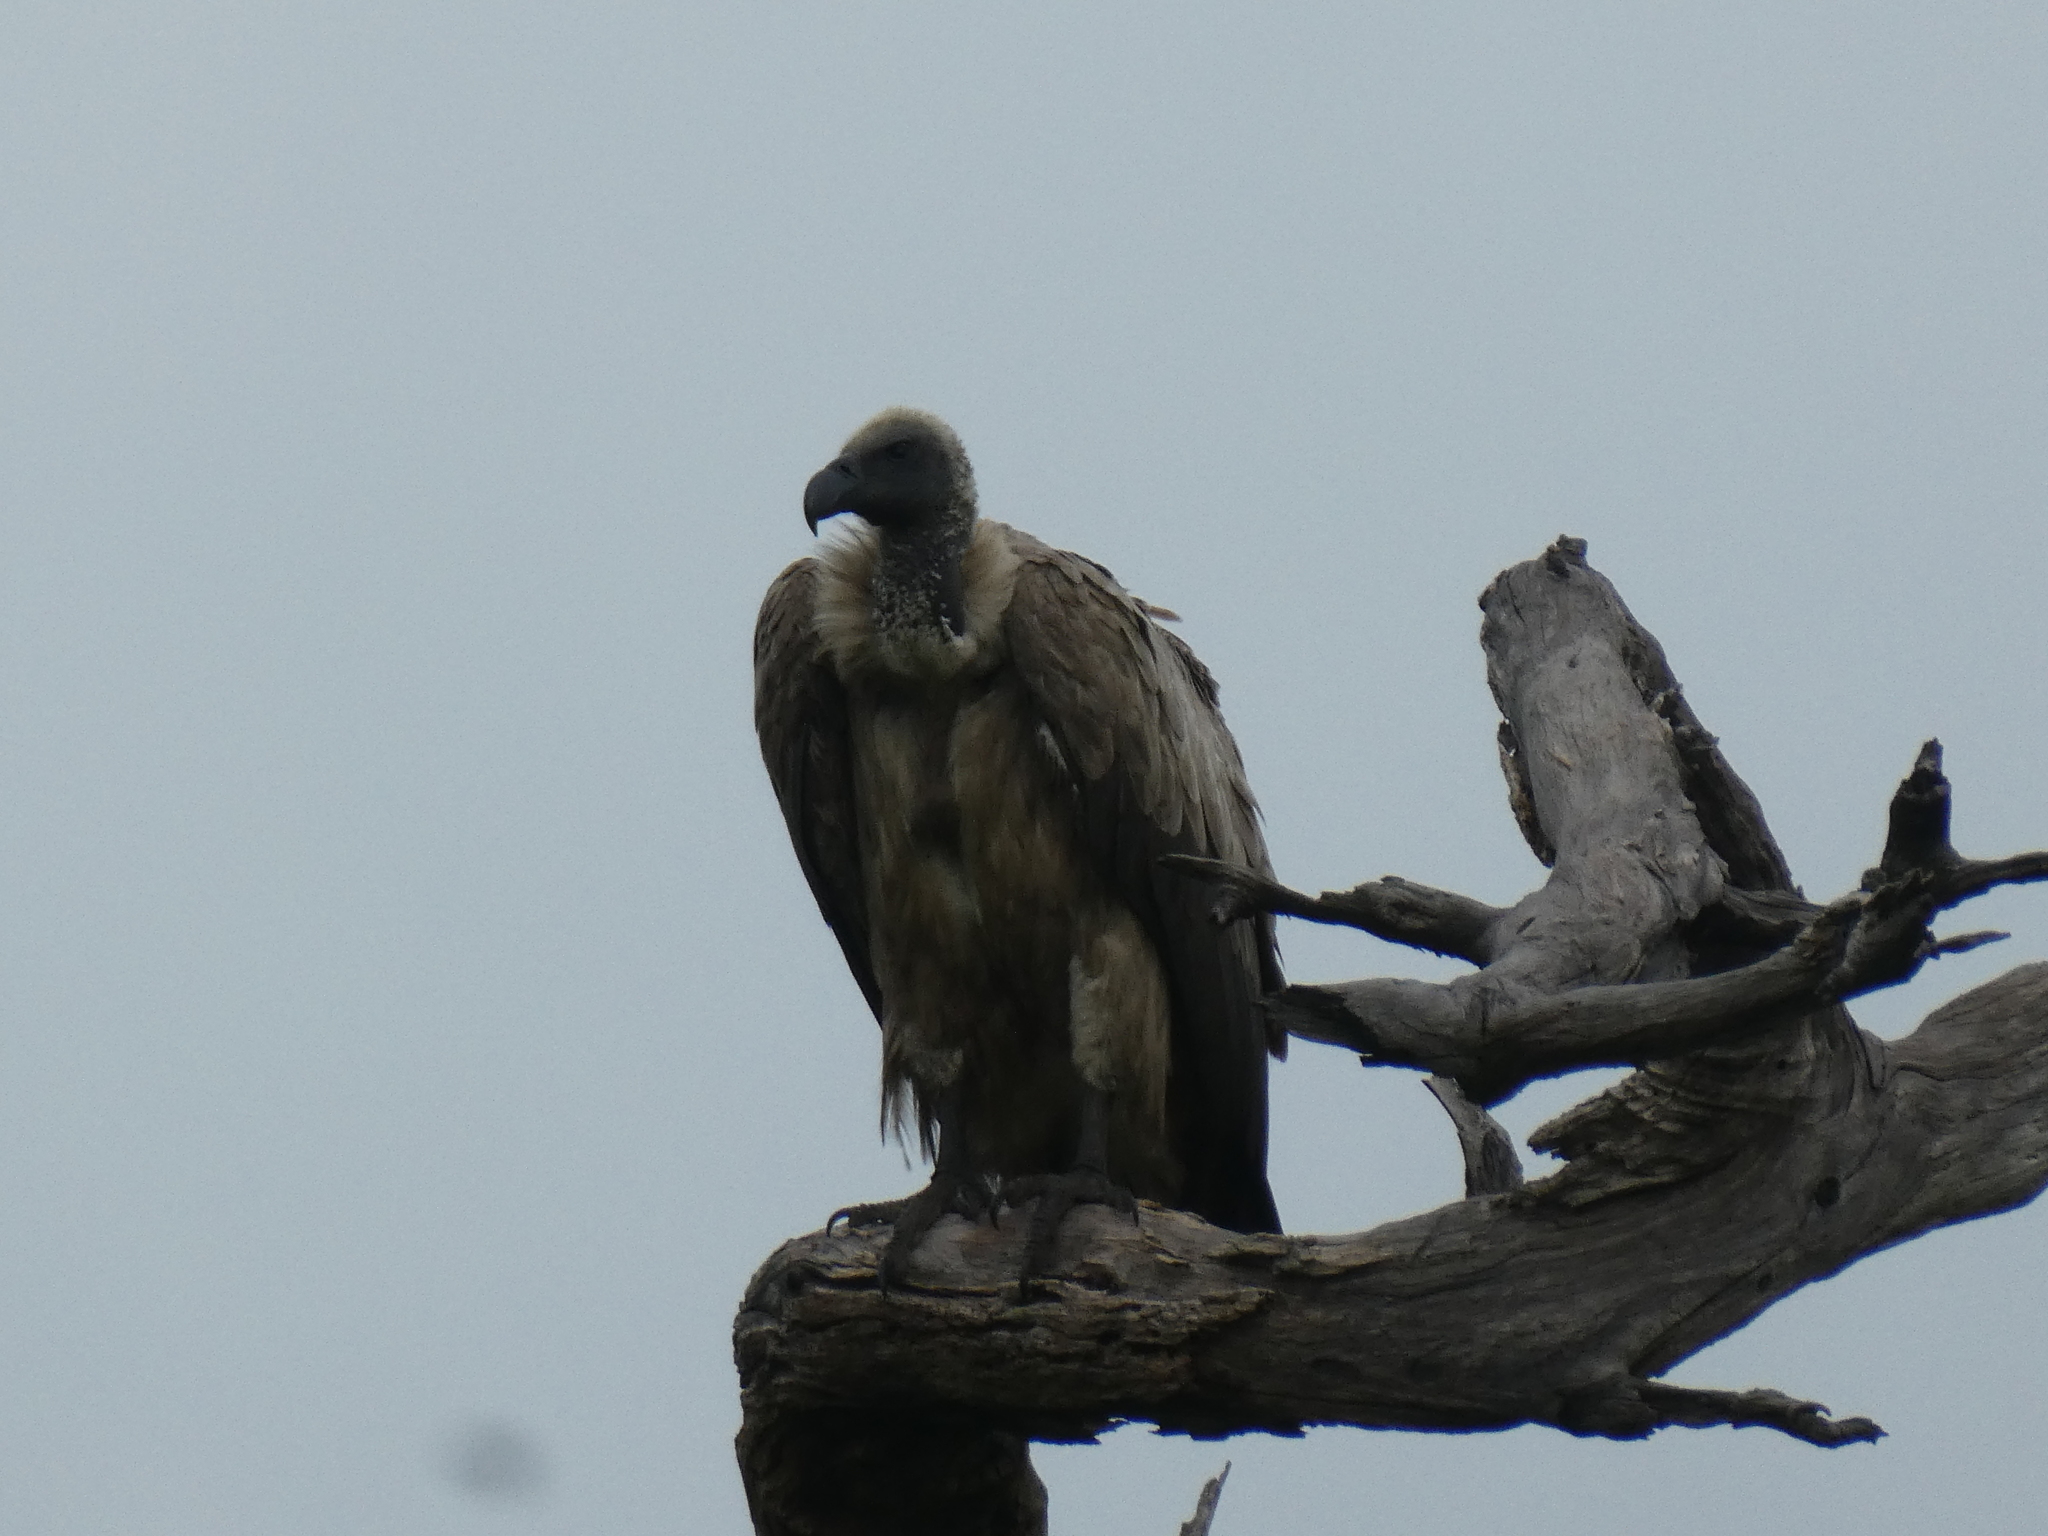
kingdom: Animalia
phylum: Chordata
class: Aves
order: Accipitriformes
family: Accipitridae
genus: Gyps
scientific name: Gyps africanus
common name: White-backed vulture
